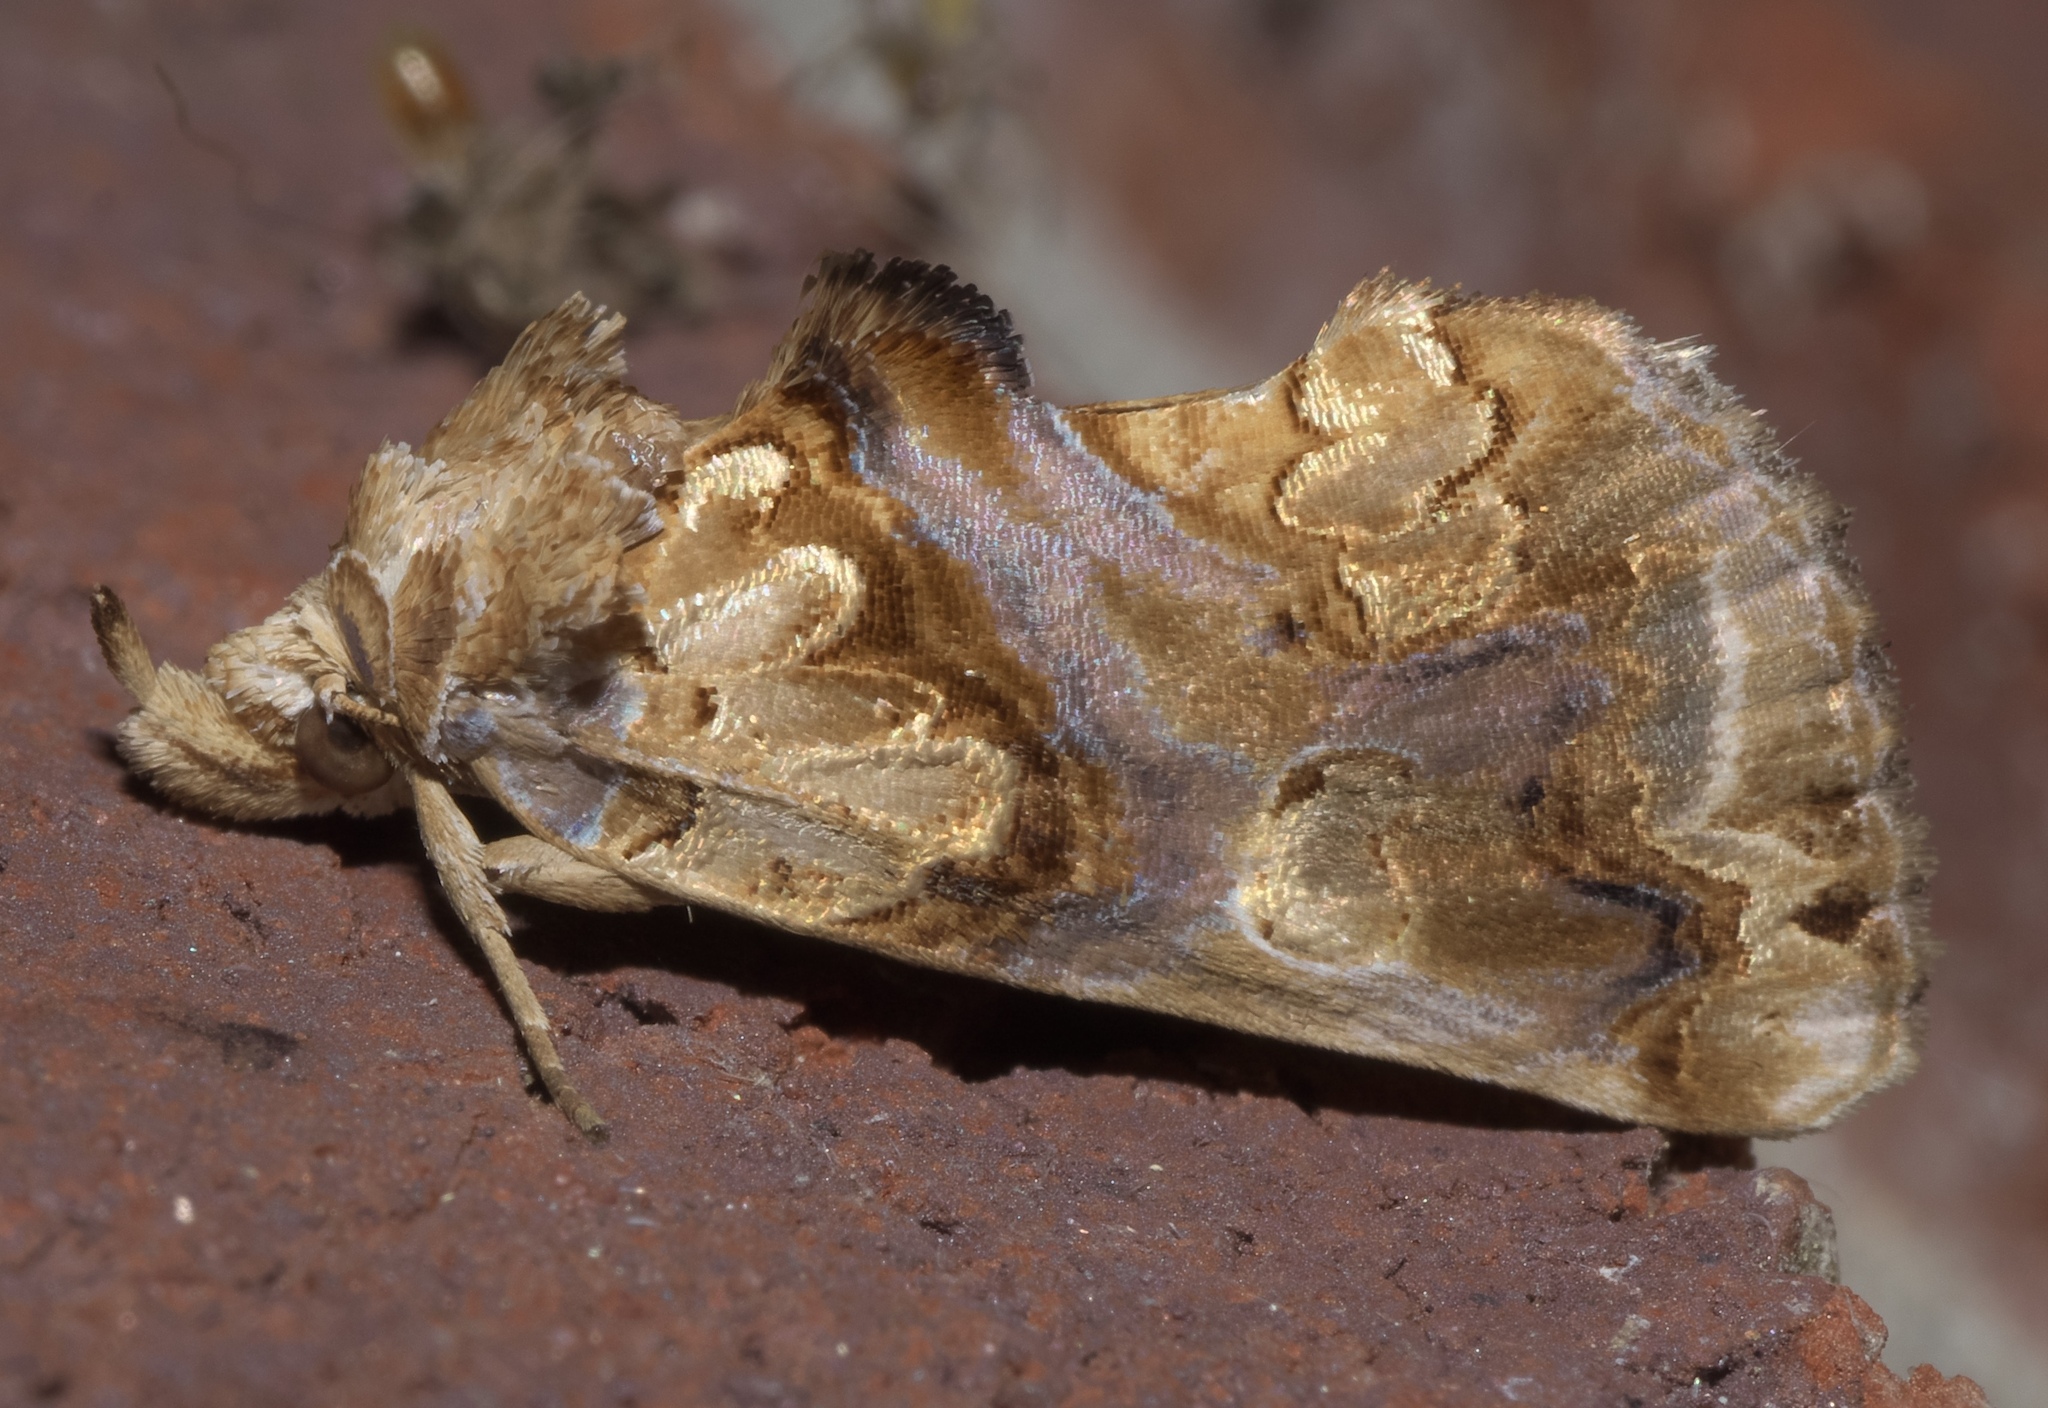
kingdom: Animalia
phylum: Arthropoda
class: Insecta
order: Lepidoptera
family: Erebidae
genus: Plusiodonta
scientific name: Plusiodonta compressipalpis
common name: Moonseed moth
